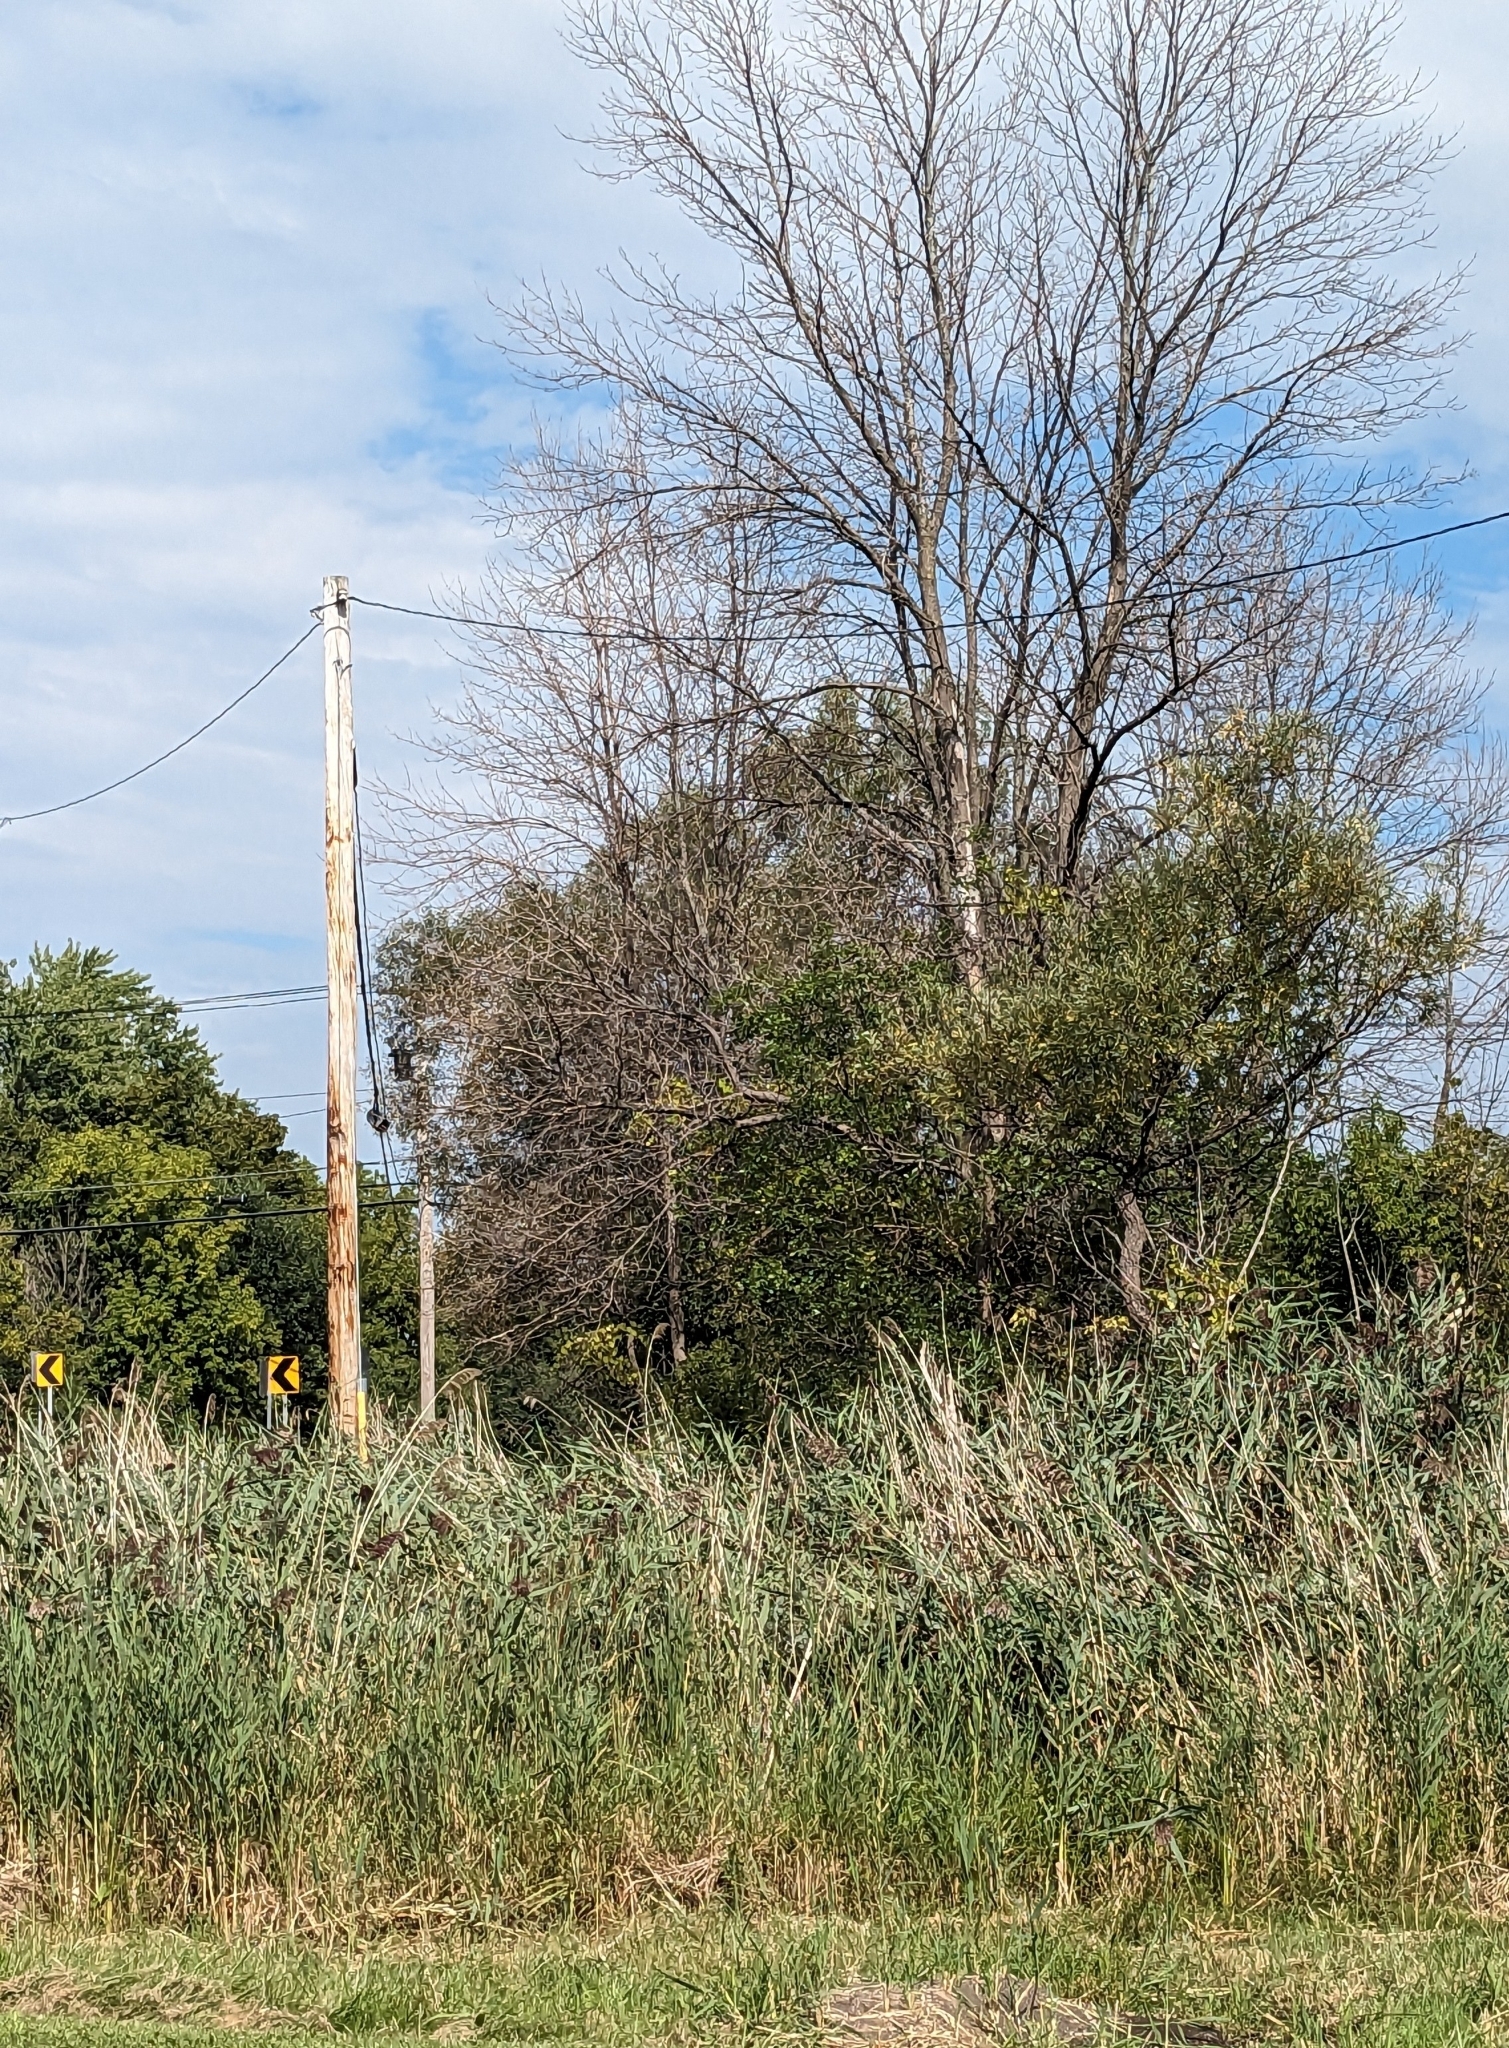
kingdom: Plantae
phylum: Tracheophyta
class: Liliopsida
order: Poales
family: Poaceae
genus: Phragmites
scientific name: Phragmites australis
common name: Common reed
